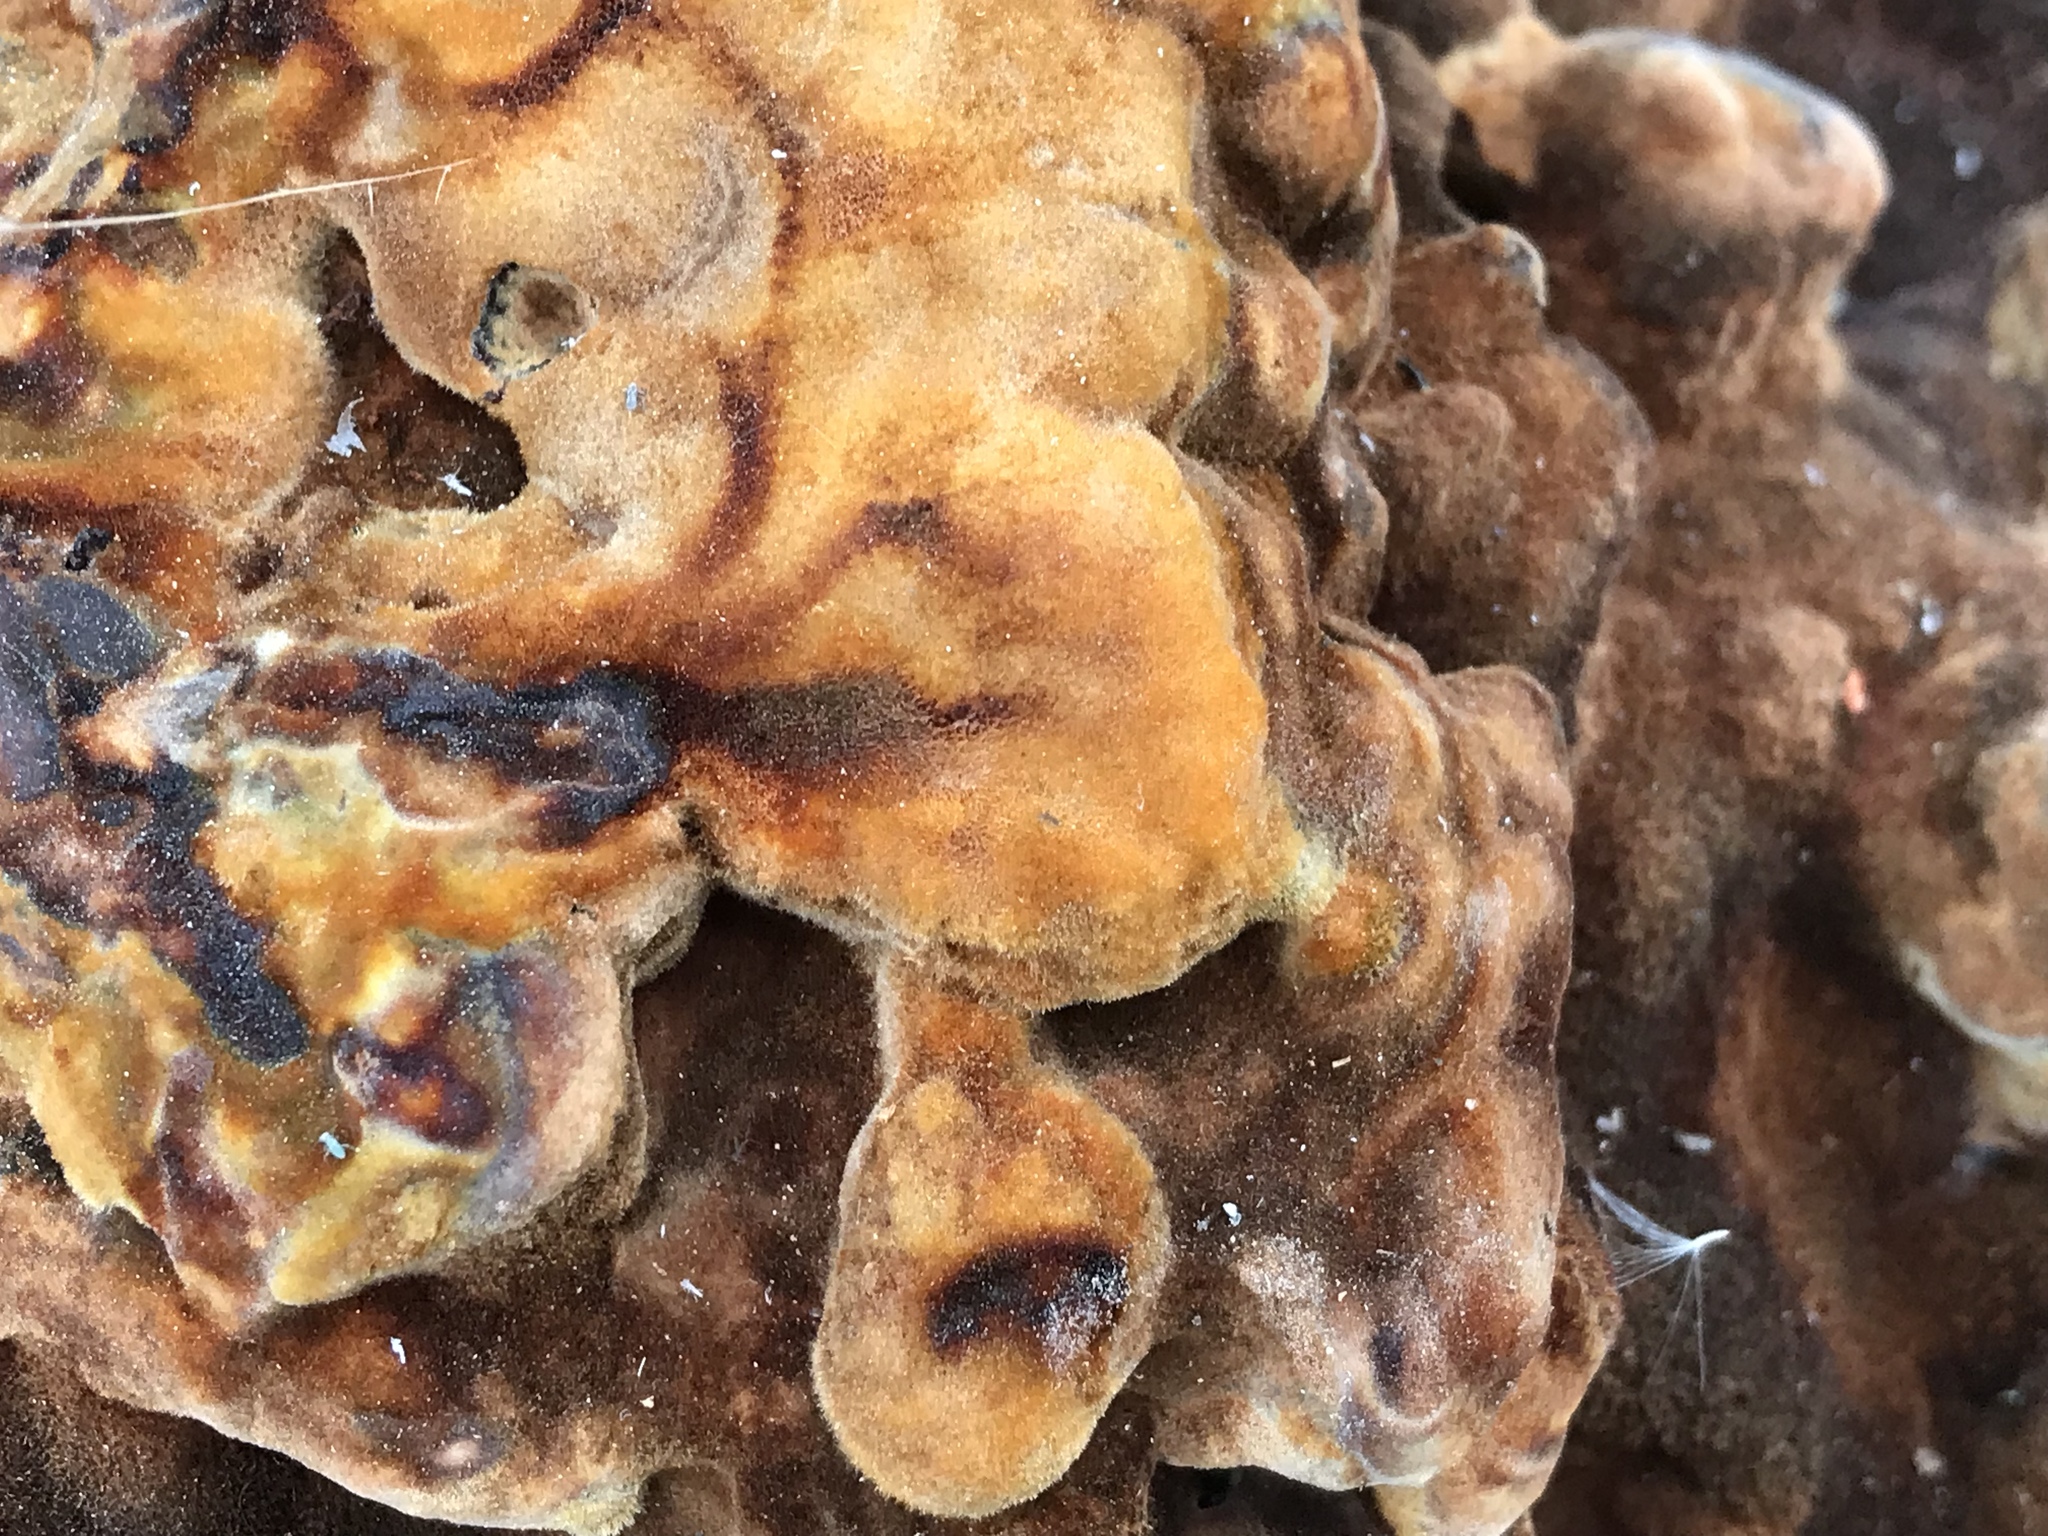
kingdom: Fungi
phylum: Basidiomycota
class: Agaricomycetes
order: Polyporales
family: Laetiporaceae
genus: Phaeolus
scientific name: Phaeolus schweinitzii
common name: Dyer's mazegill
